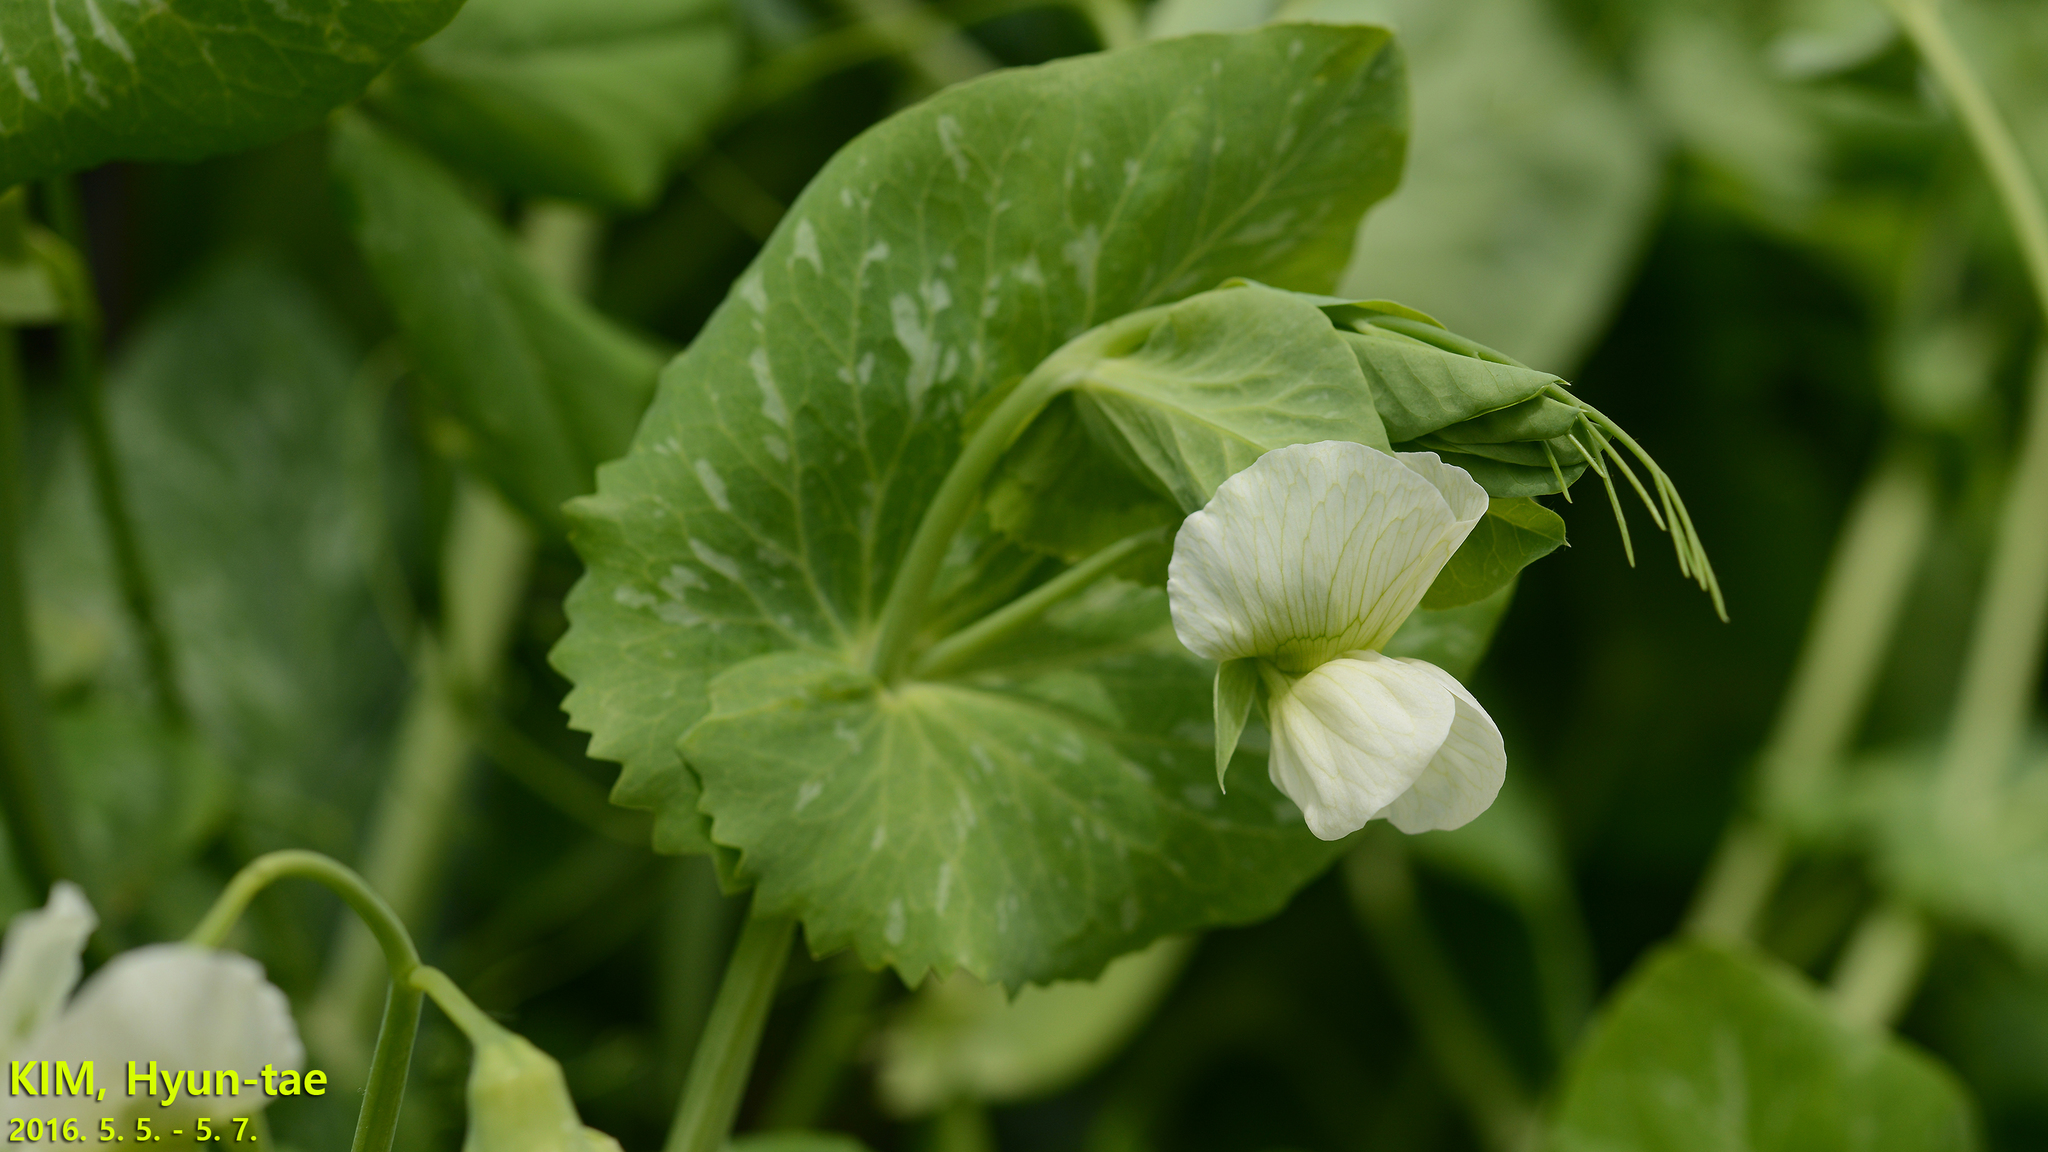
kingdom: Plantae
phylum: Tracheophyta
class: Magnoliopsida
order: Fabales
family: Fabaceae
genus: Lathyrus
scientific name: Lathyrus oleraceus
